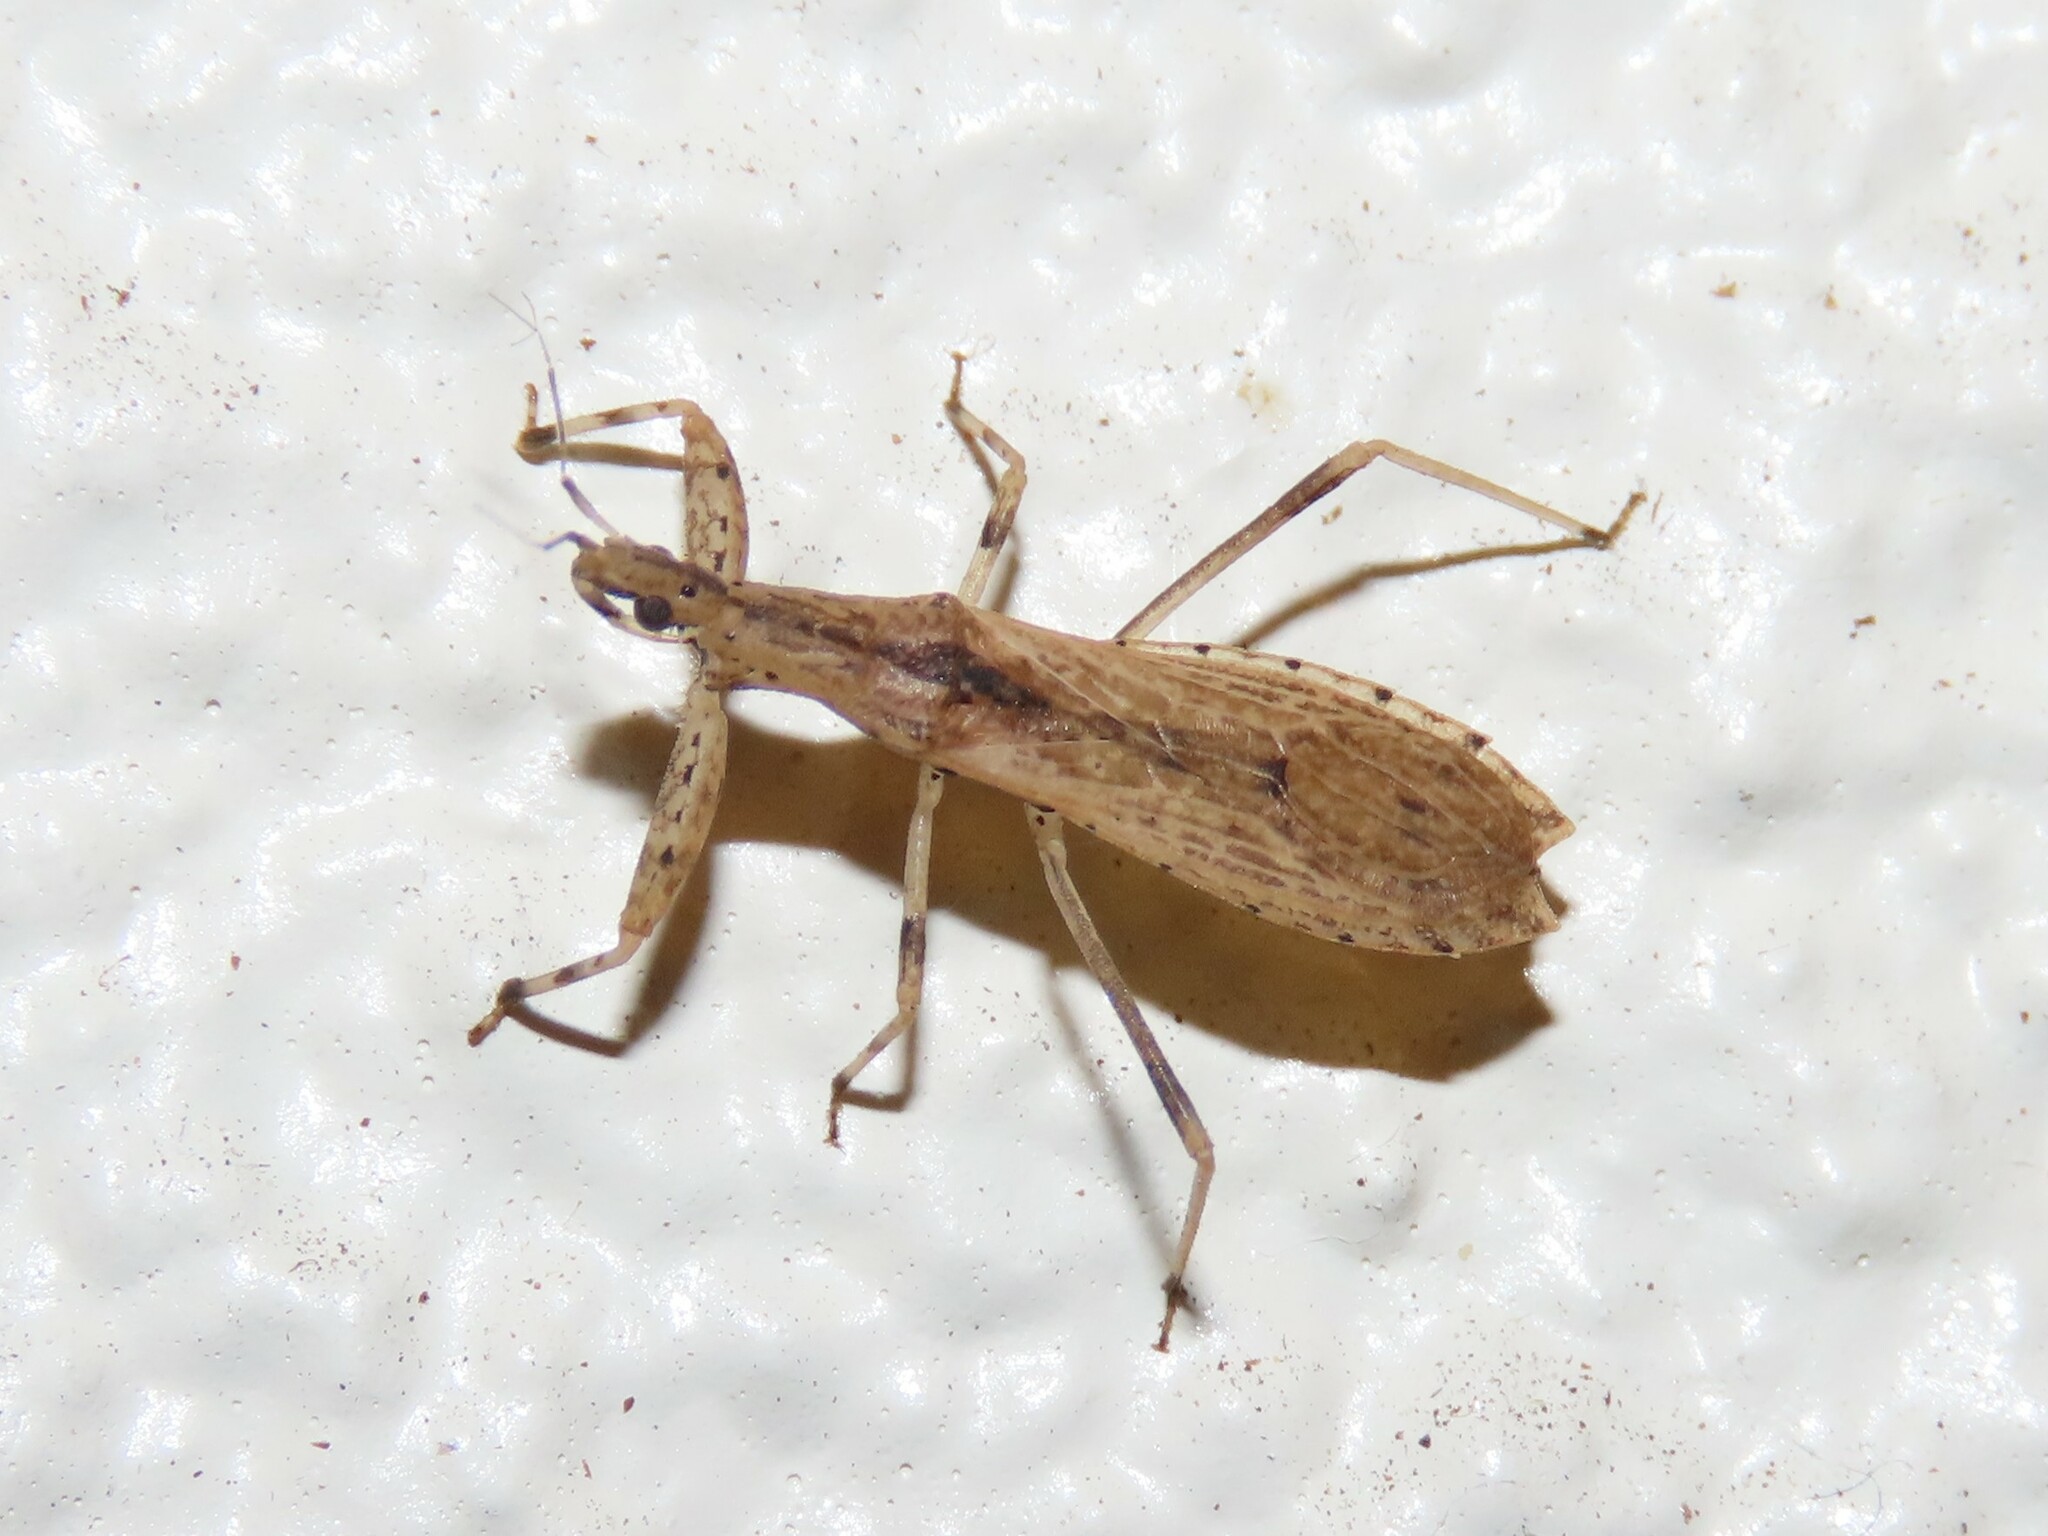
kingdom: Animalia
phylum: Arthropoda
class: Insecta
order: Hemiptera
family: Reduviidae
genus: Stenopoda
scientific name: Stenopoda spinulosa
